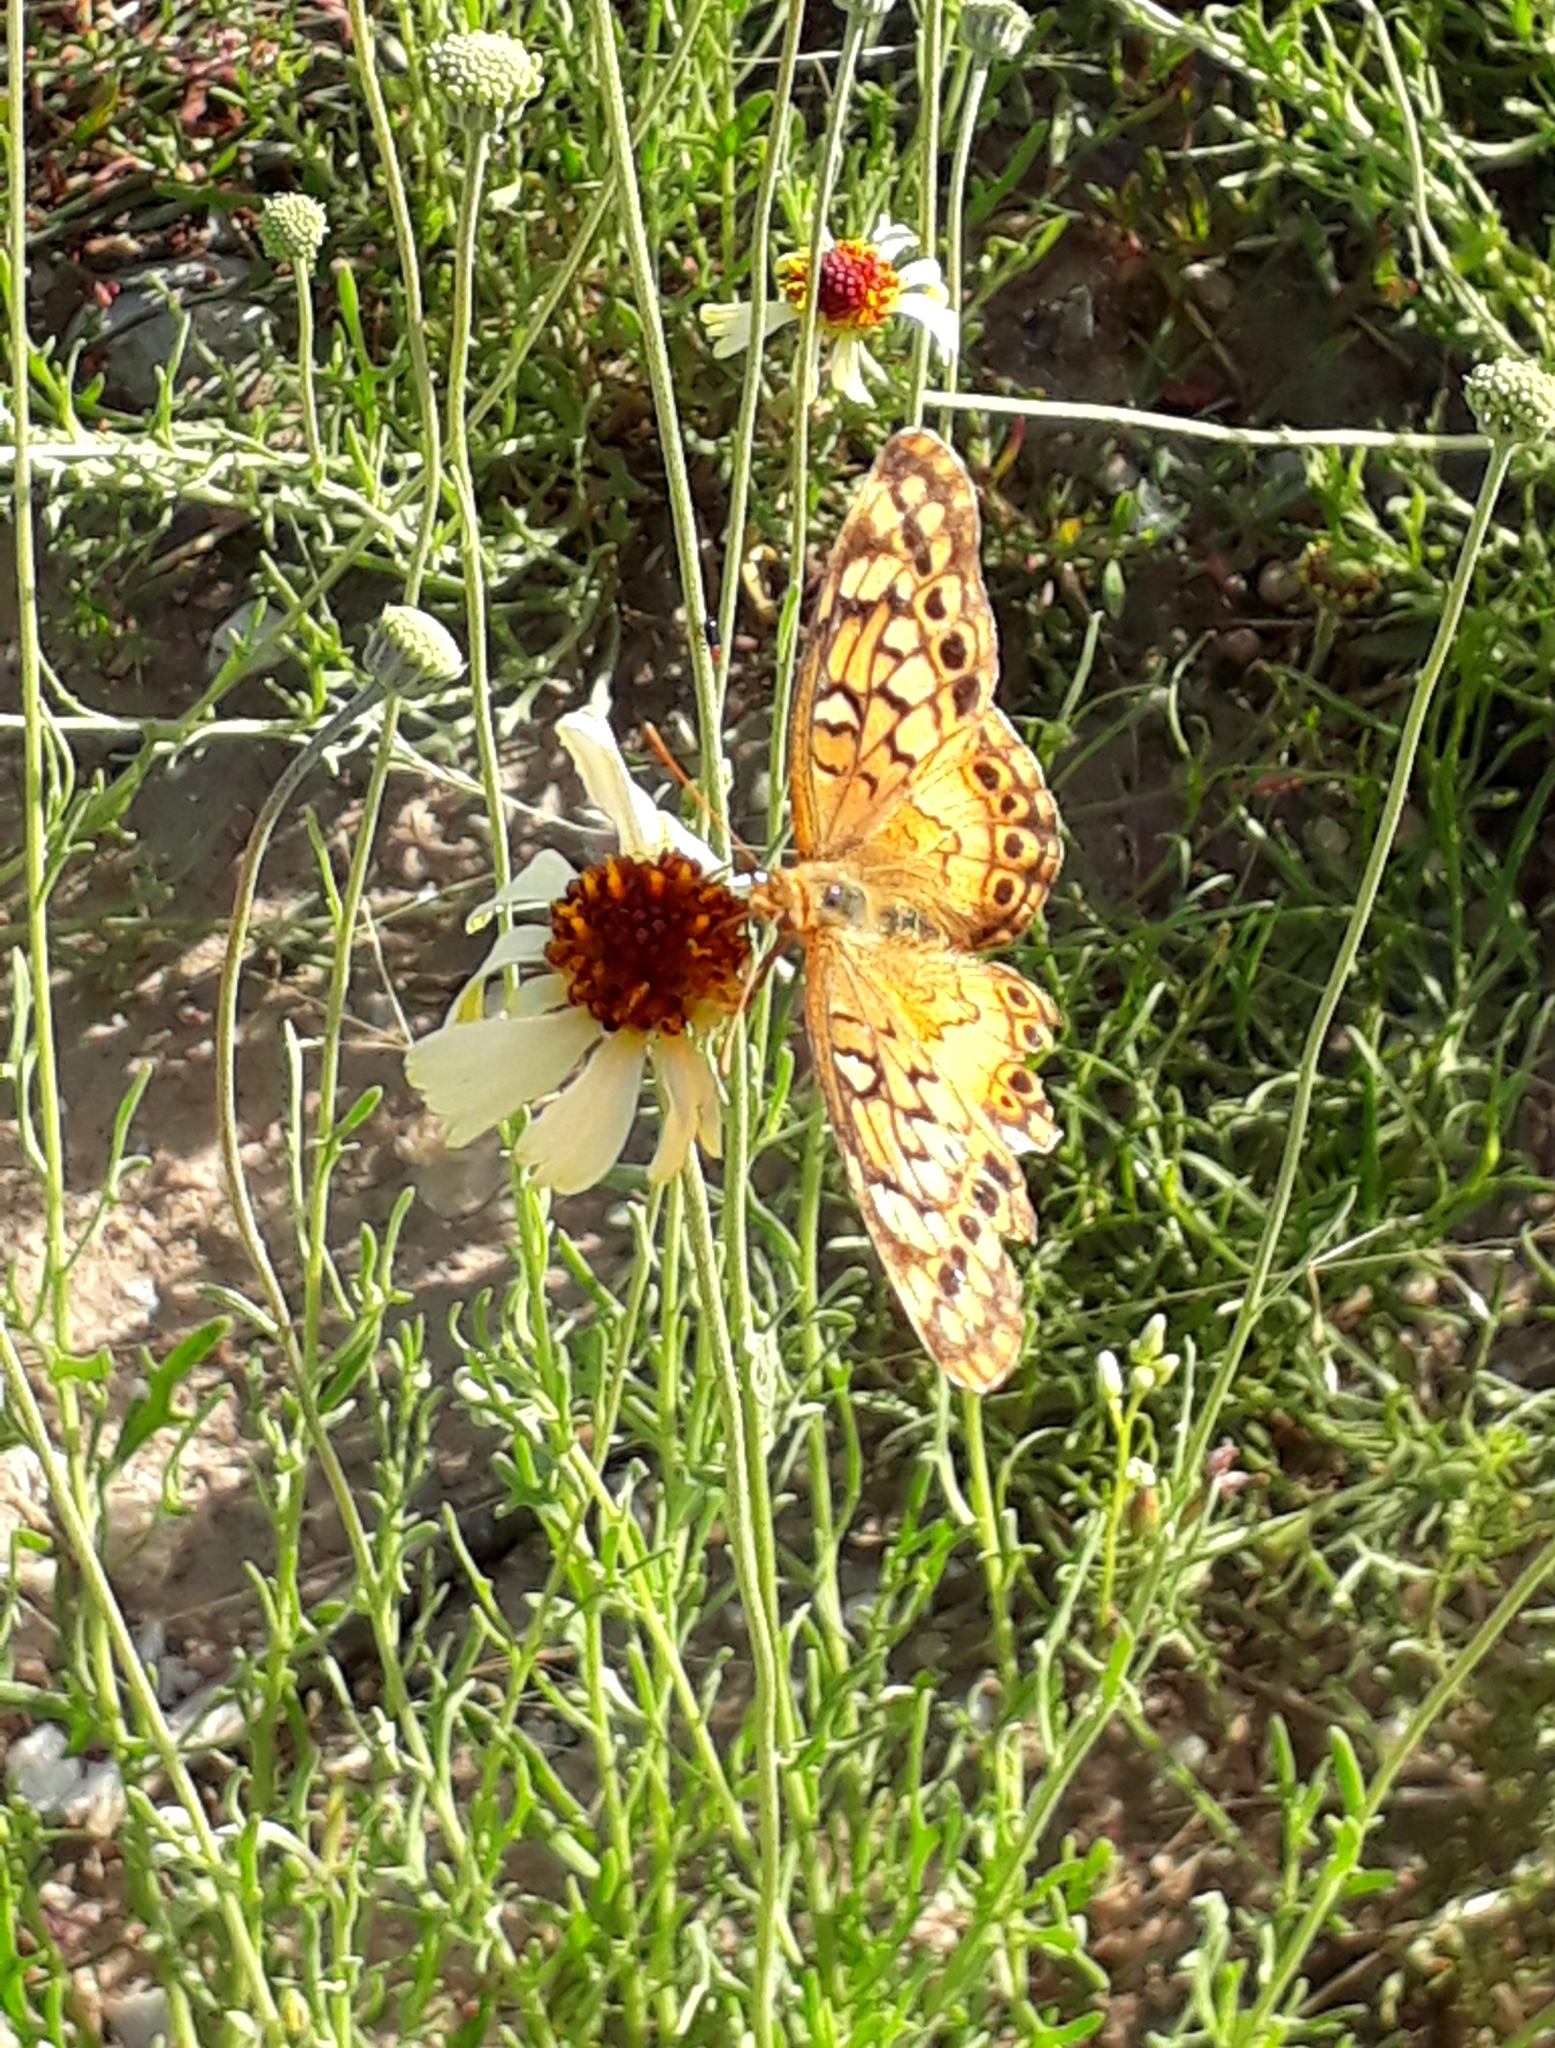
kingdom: Animalia
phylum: Arthropoda
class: Insecta
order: Lepidoptera
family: Nymphalidae
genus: Euptoieta
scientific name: Euptoieta hortensia
